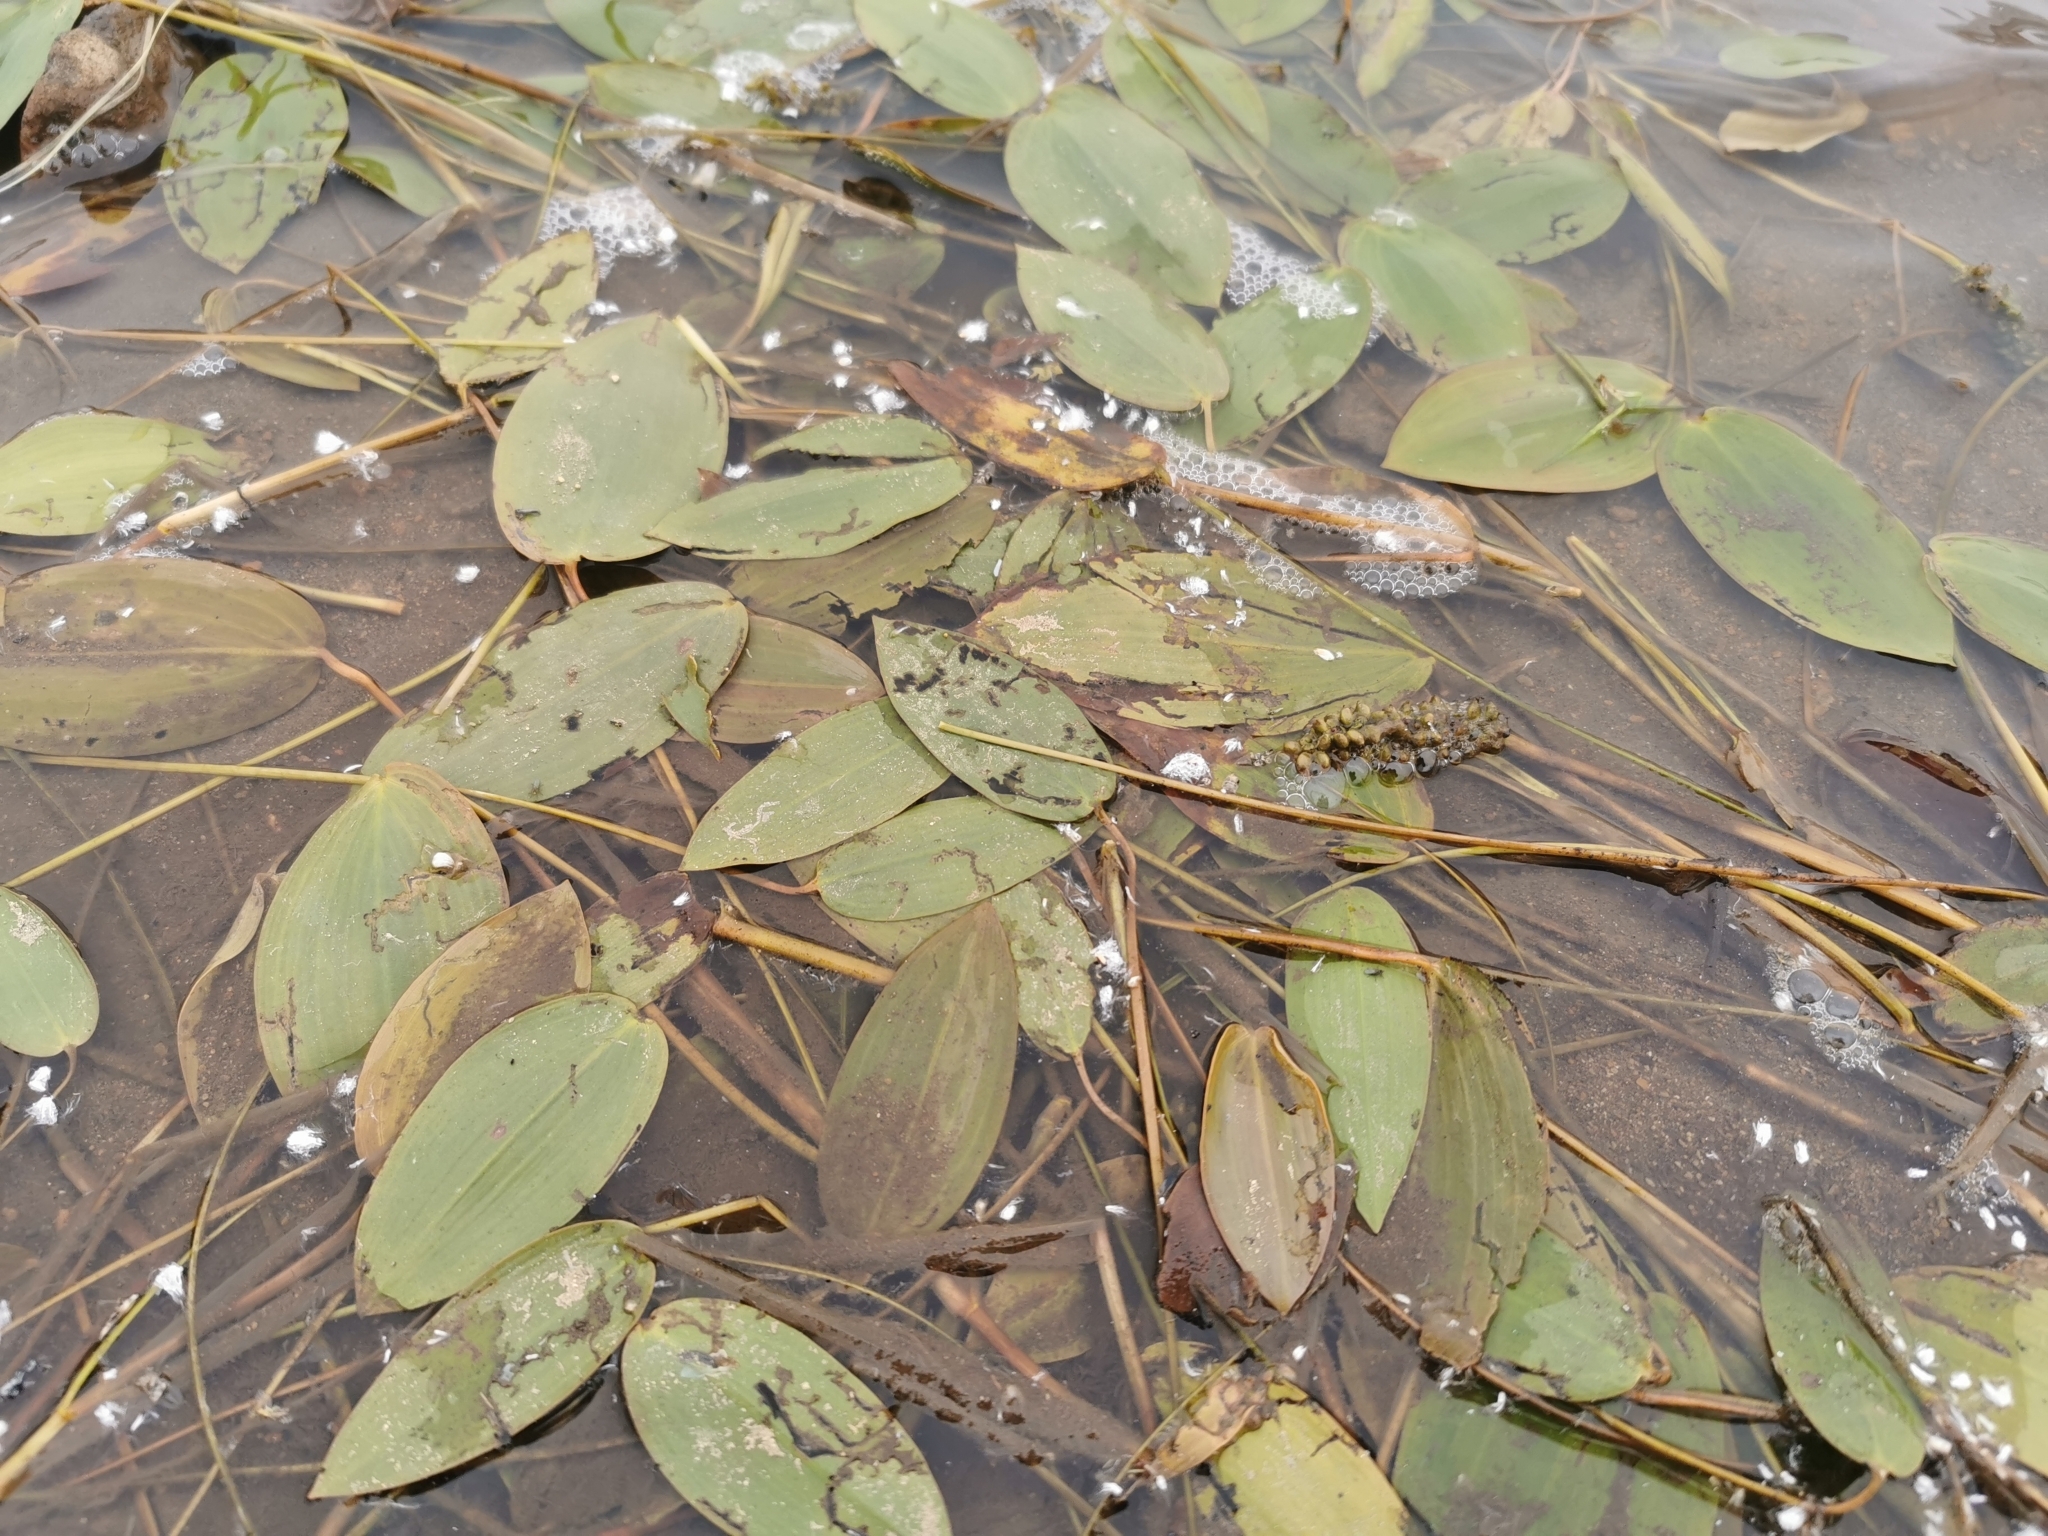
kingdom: Plantae
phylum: Tracheophyta
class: Liliopsida
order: Alismatales
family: Potamogetonaceae
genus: Potamogeton
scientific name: Potamogeton natans
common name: Broad-leaved pondweed
